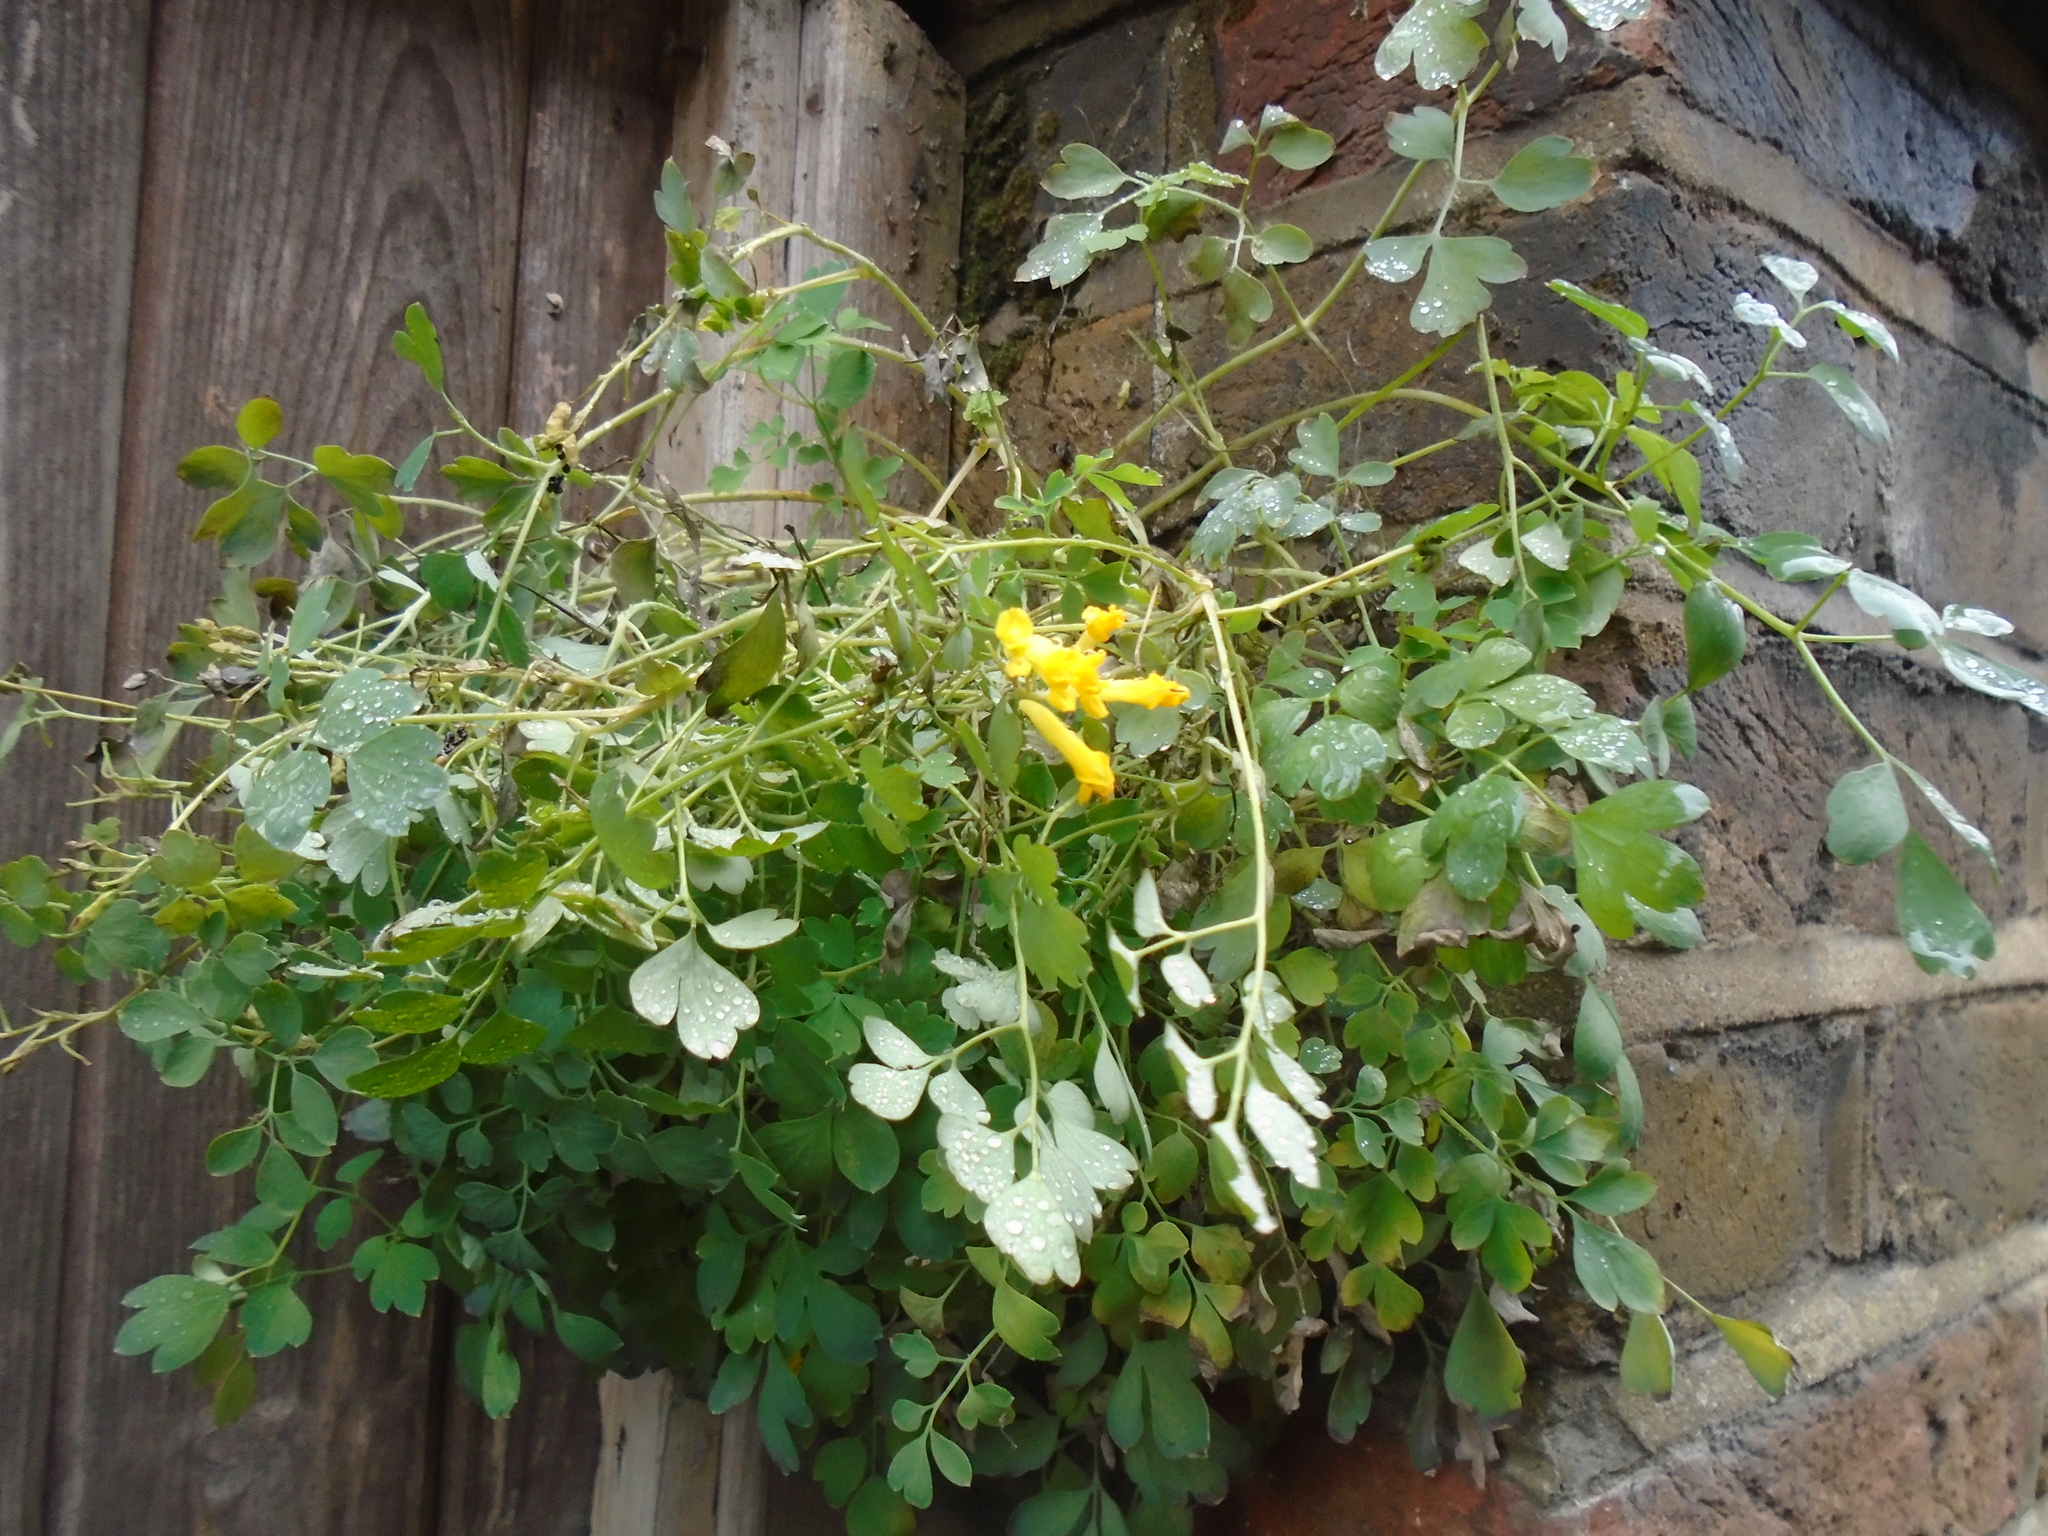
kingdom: Plantae
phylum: Tracheophyta
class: Magnoliopsida
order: Ranunculales
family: Papaveraceae
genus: Pseudofumaria
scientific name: Pseudofumaria lutea
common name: Yellow corydalis
